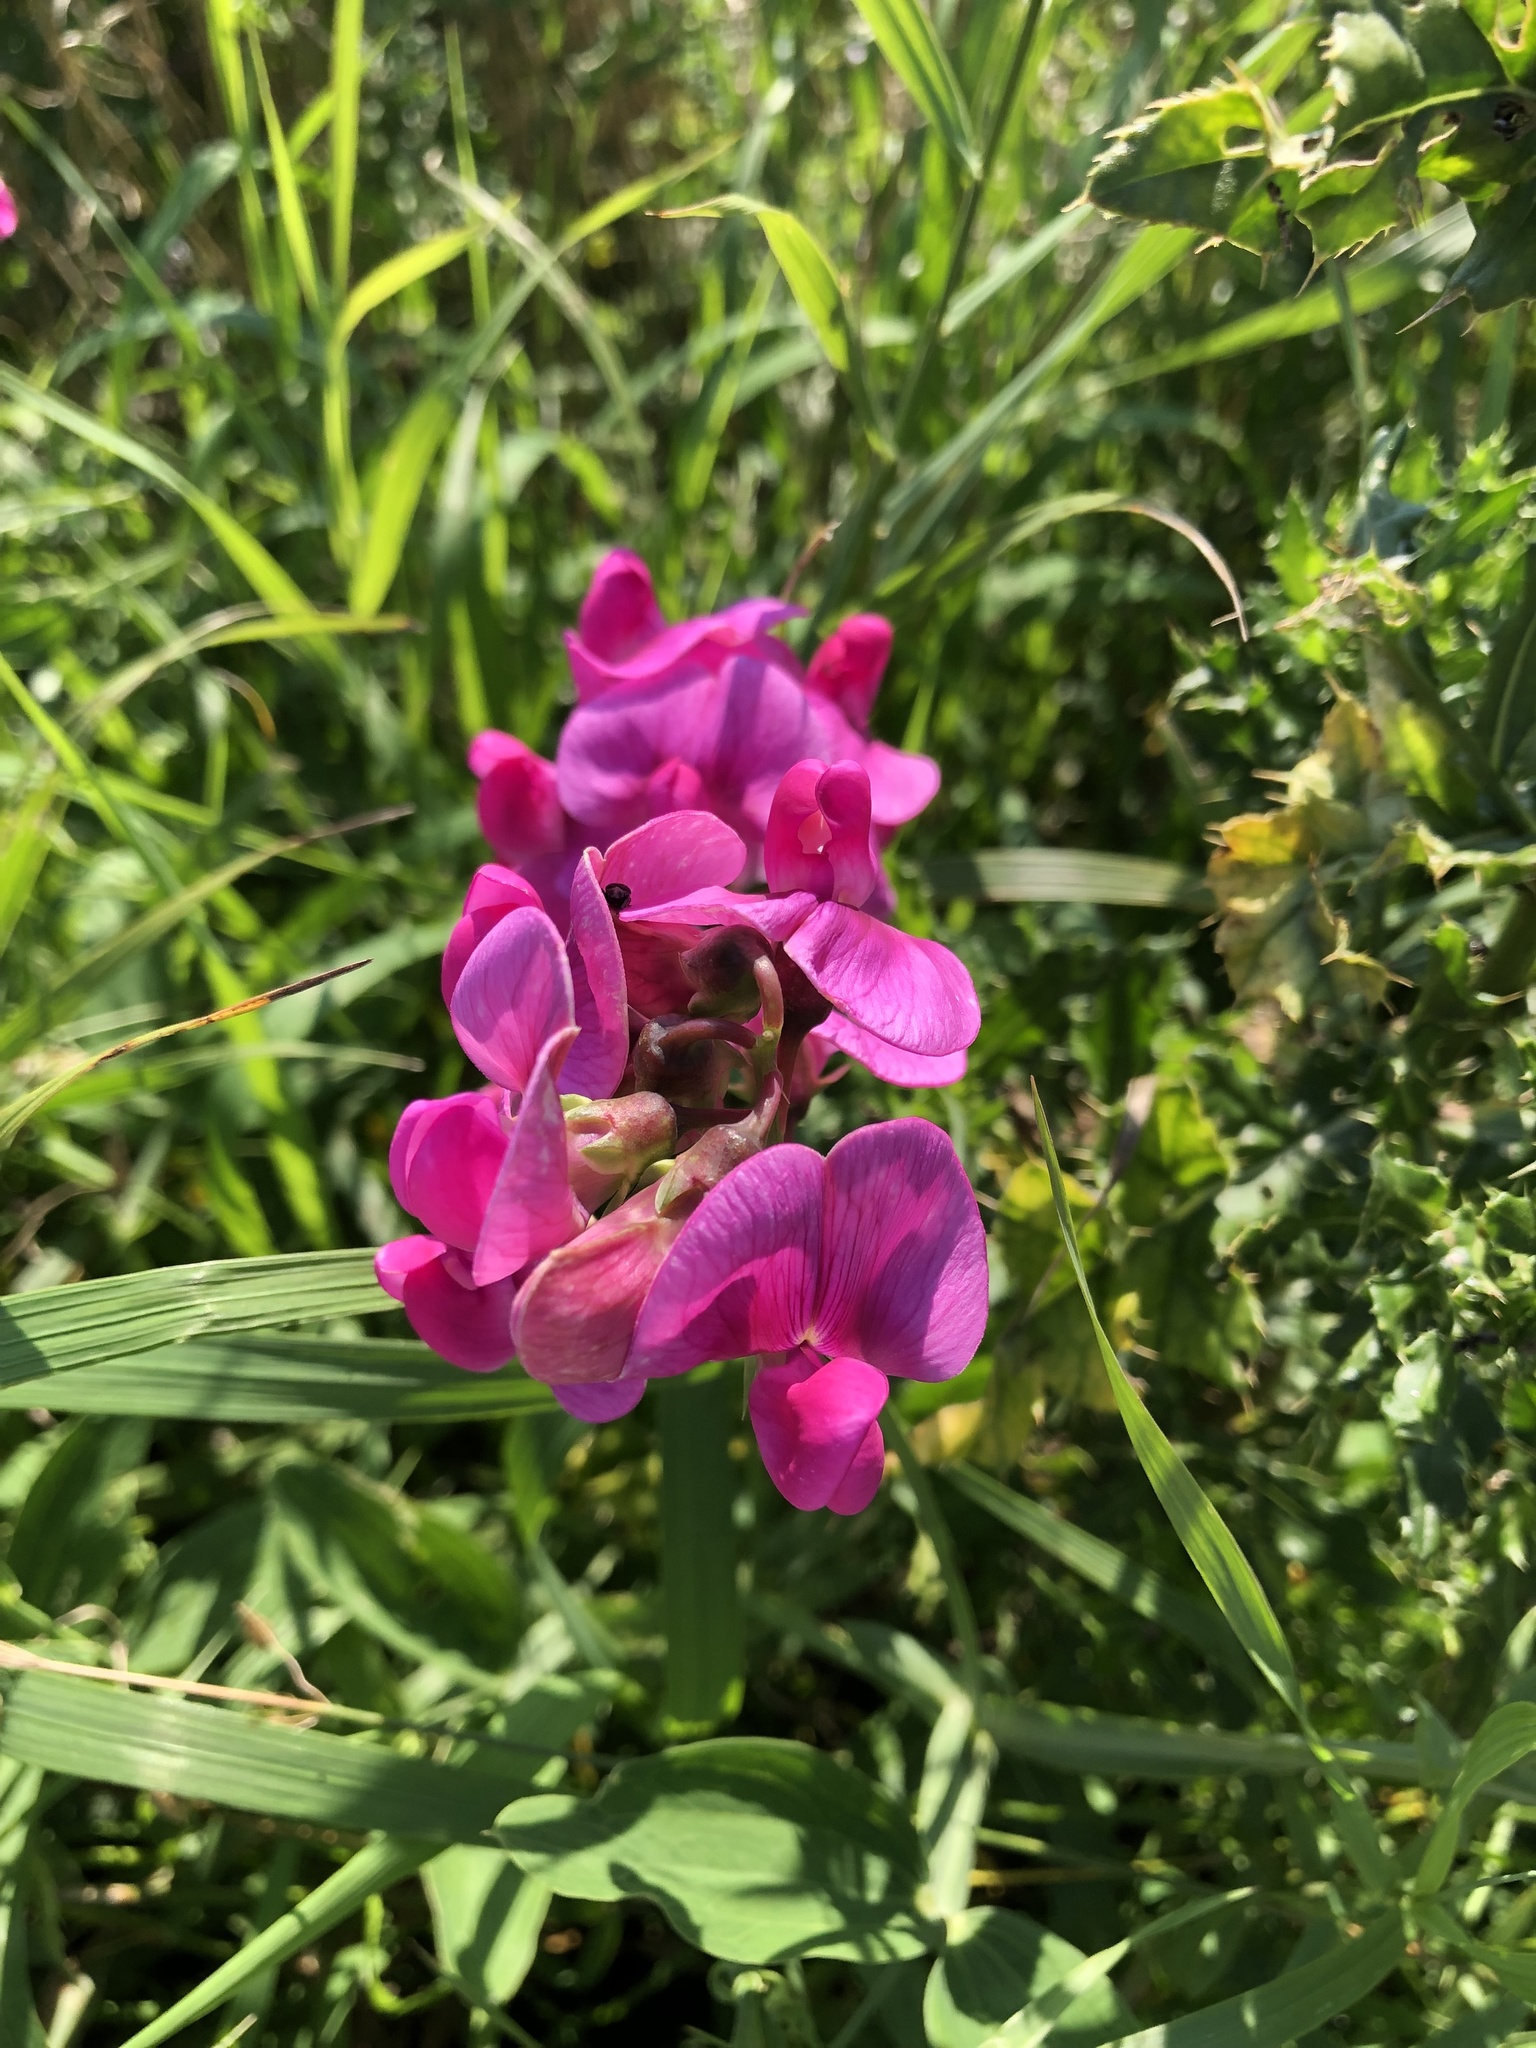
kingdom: Plantae
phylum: Tracheophyta
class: Magnoliopsida
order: Fabales
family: Fabaceae
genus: Lathyrus
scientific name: Lathyrus latifolius
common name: Perennial pea
